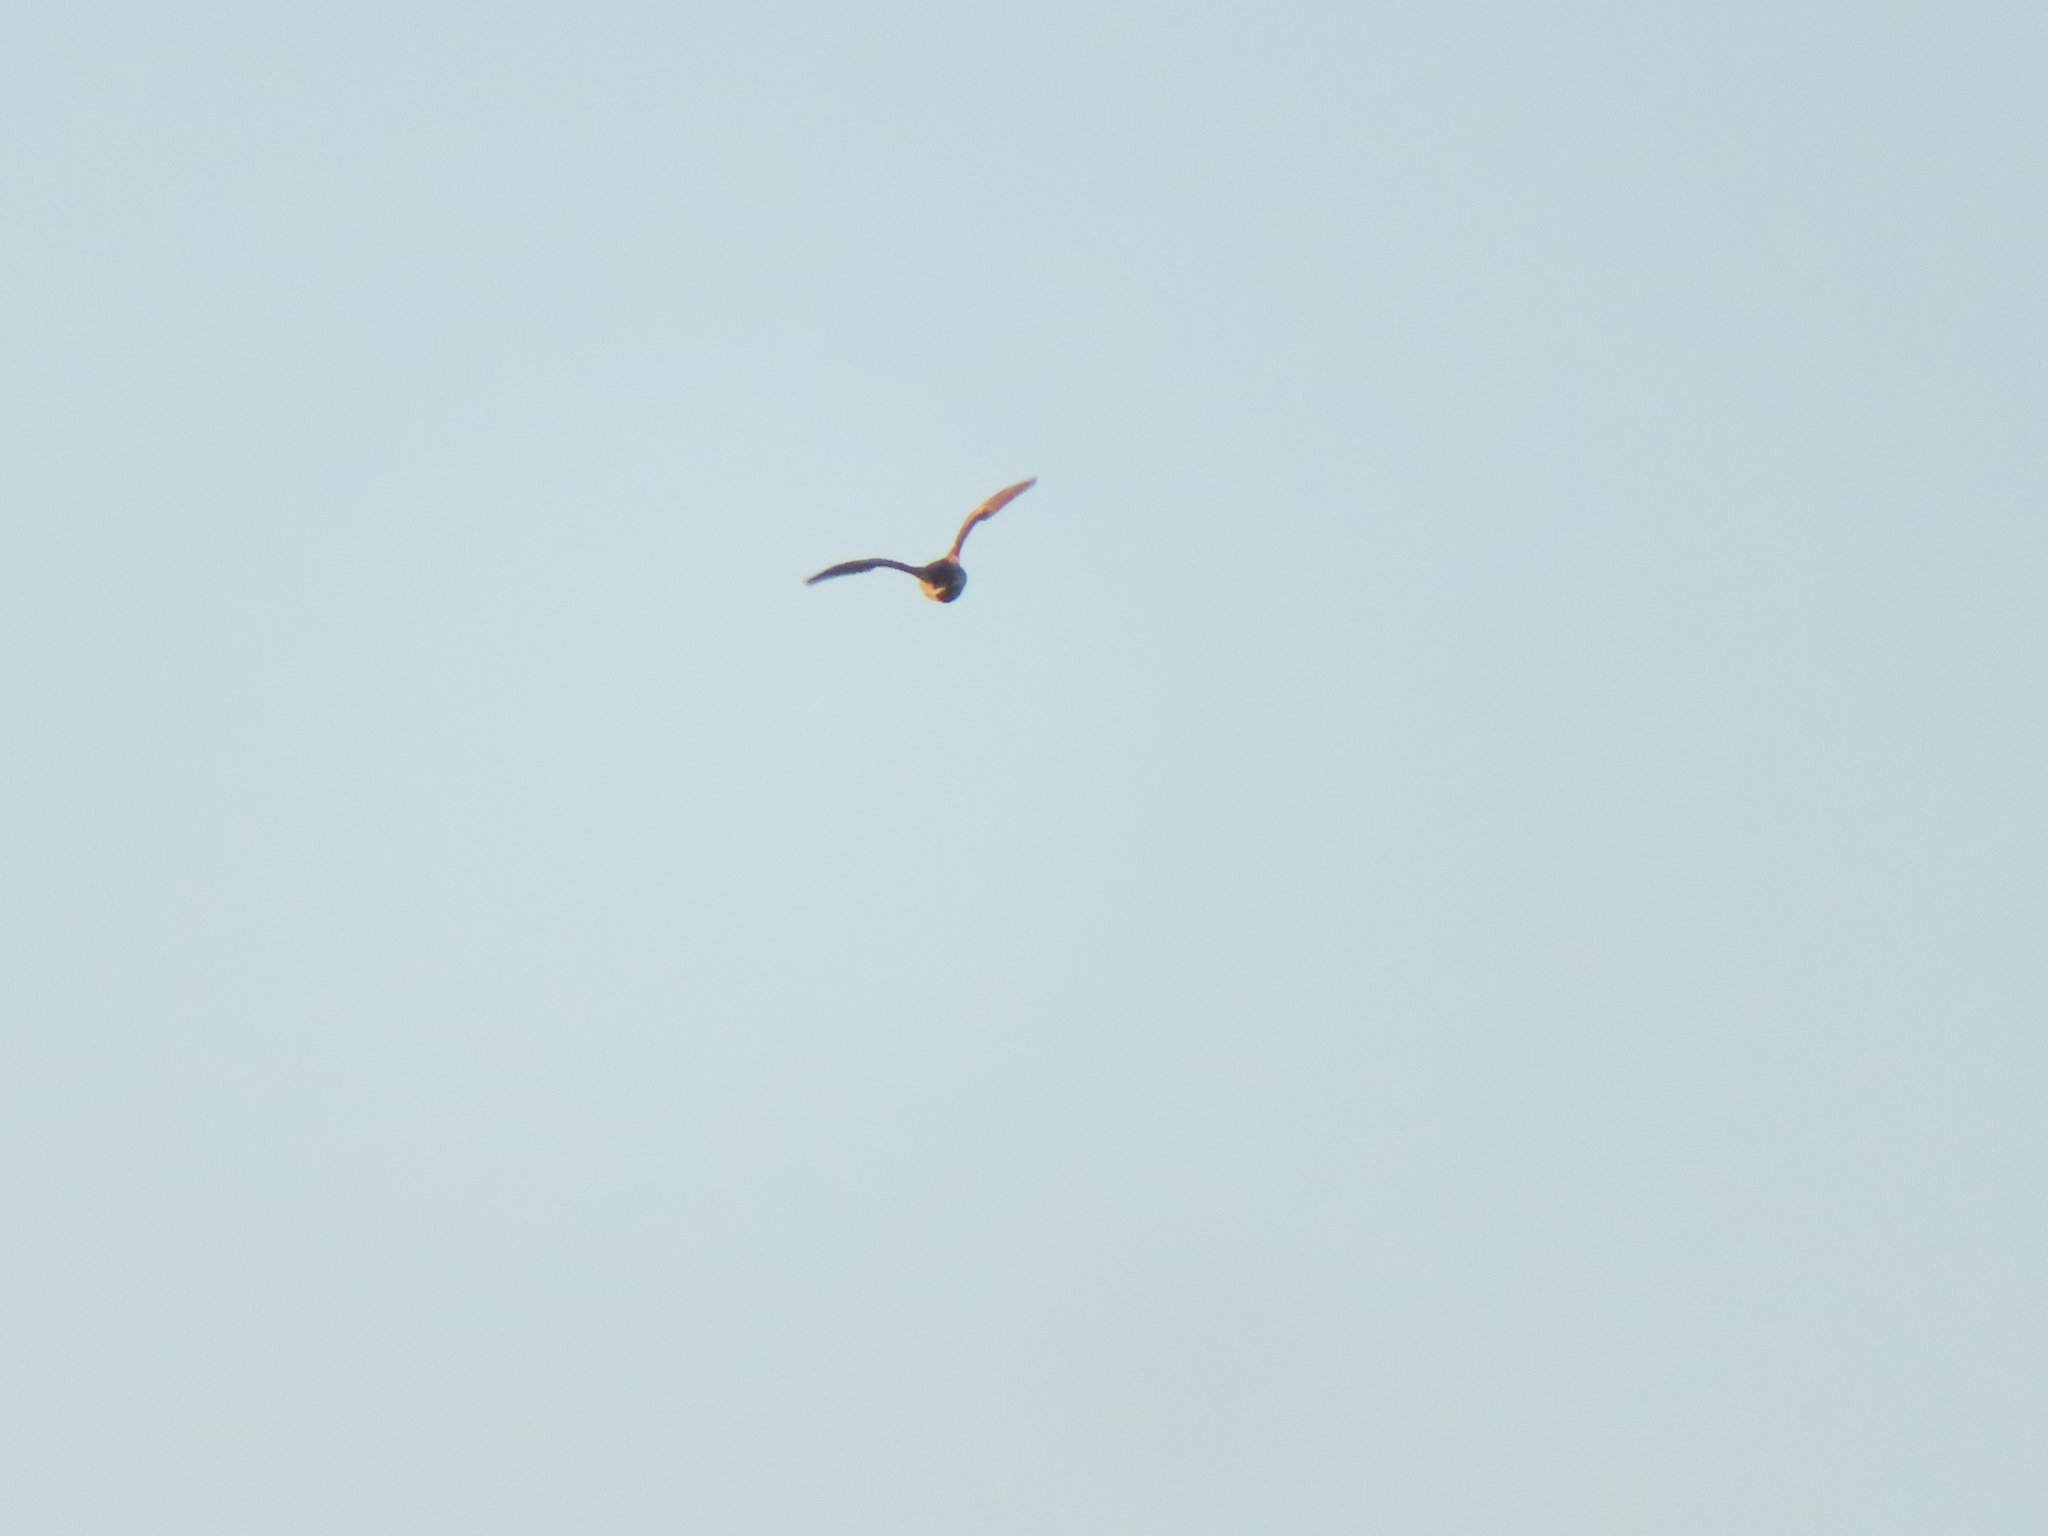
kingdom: Animalia
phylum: Chordata
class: Aves
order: Anseriformes
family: Anatidae
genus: Anas
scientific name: Anas platyrhynchos
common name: Mallard
